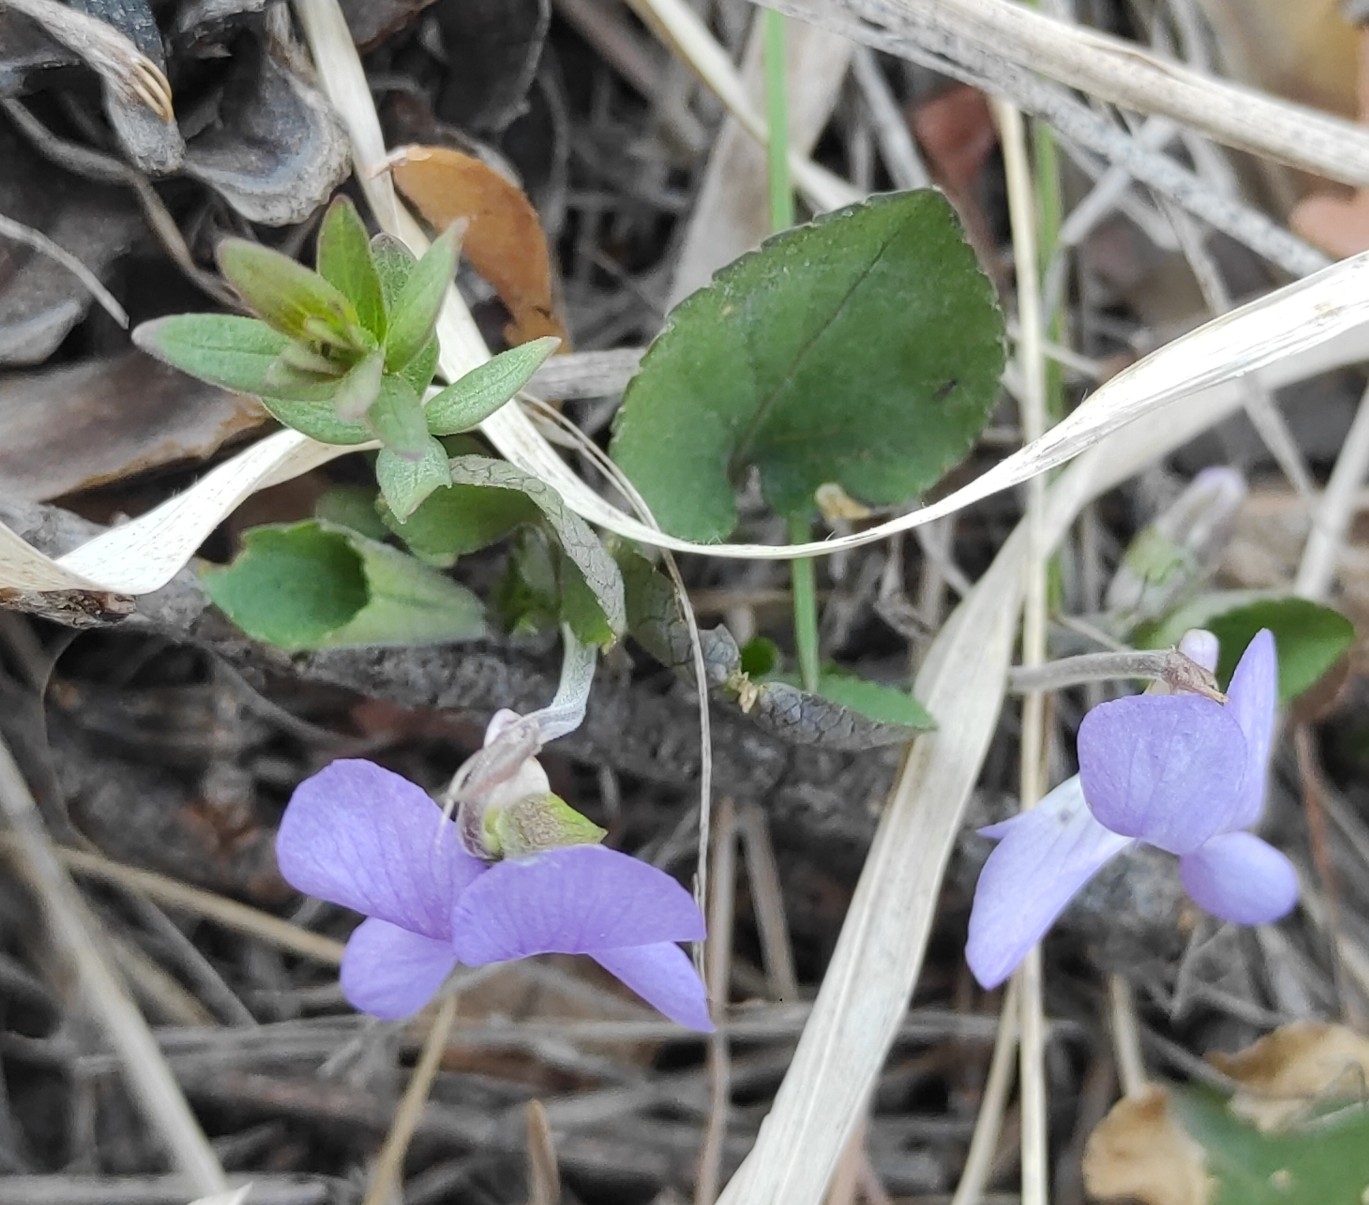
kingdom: Plantae
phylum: Tracheophyta
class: Magnoliopsida
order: Malpighiales
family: Violaceae
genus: Viola
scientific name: Viola rupestris
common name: Teesdale violet
